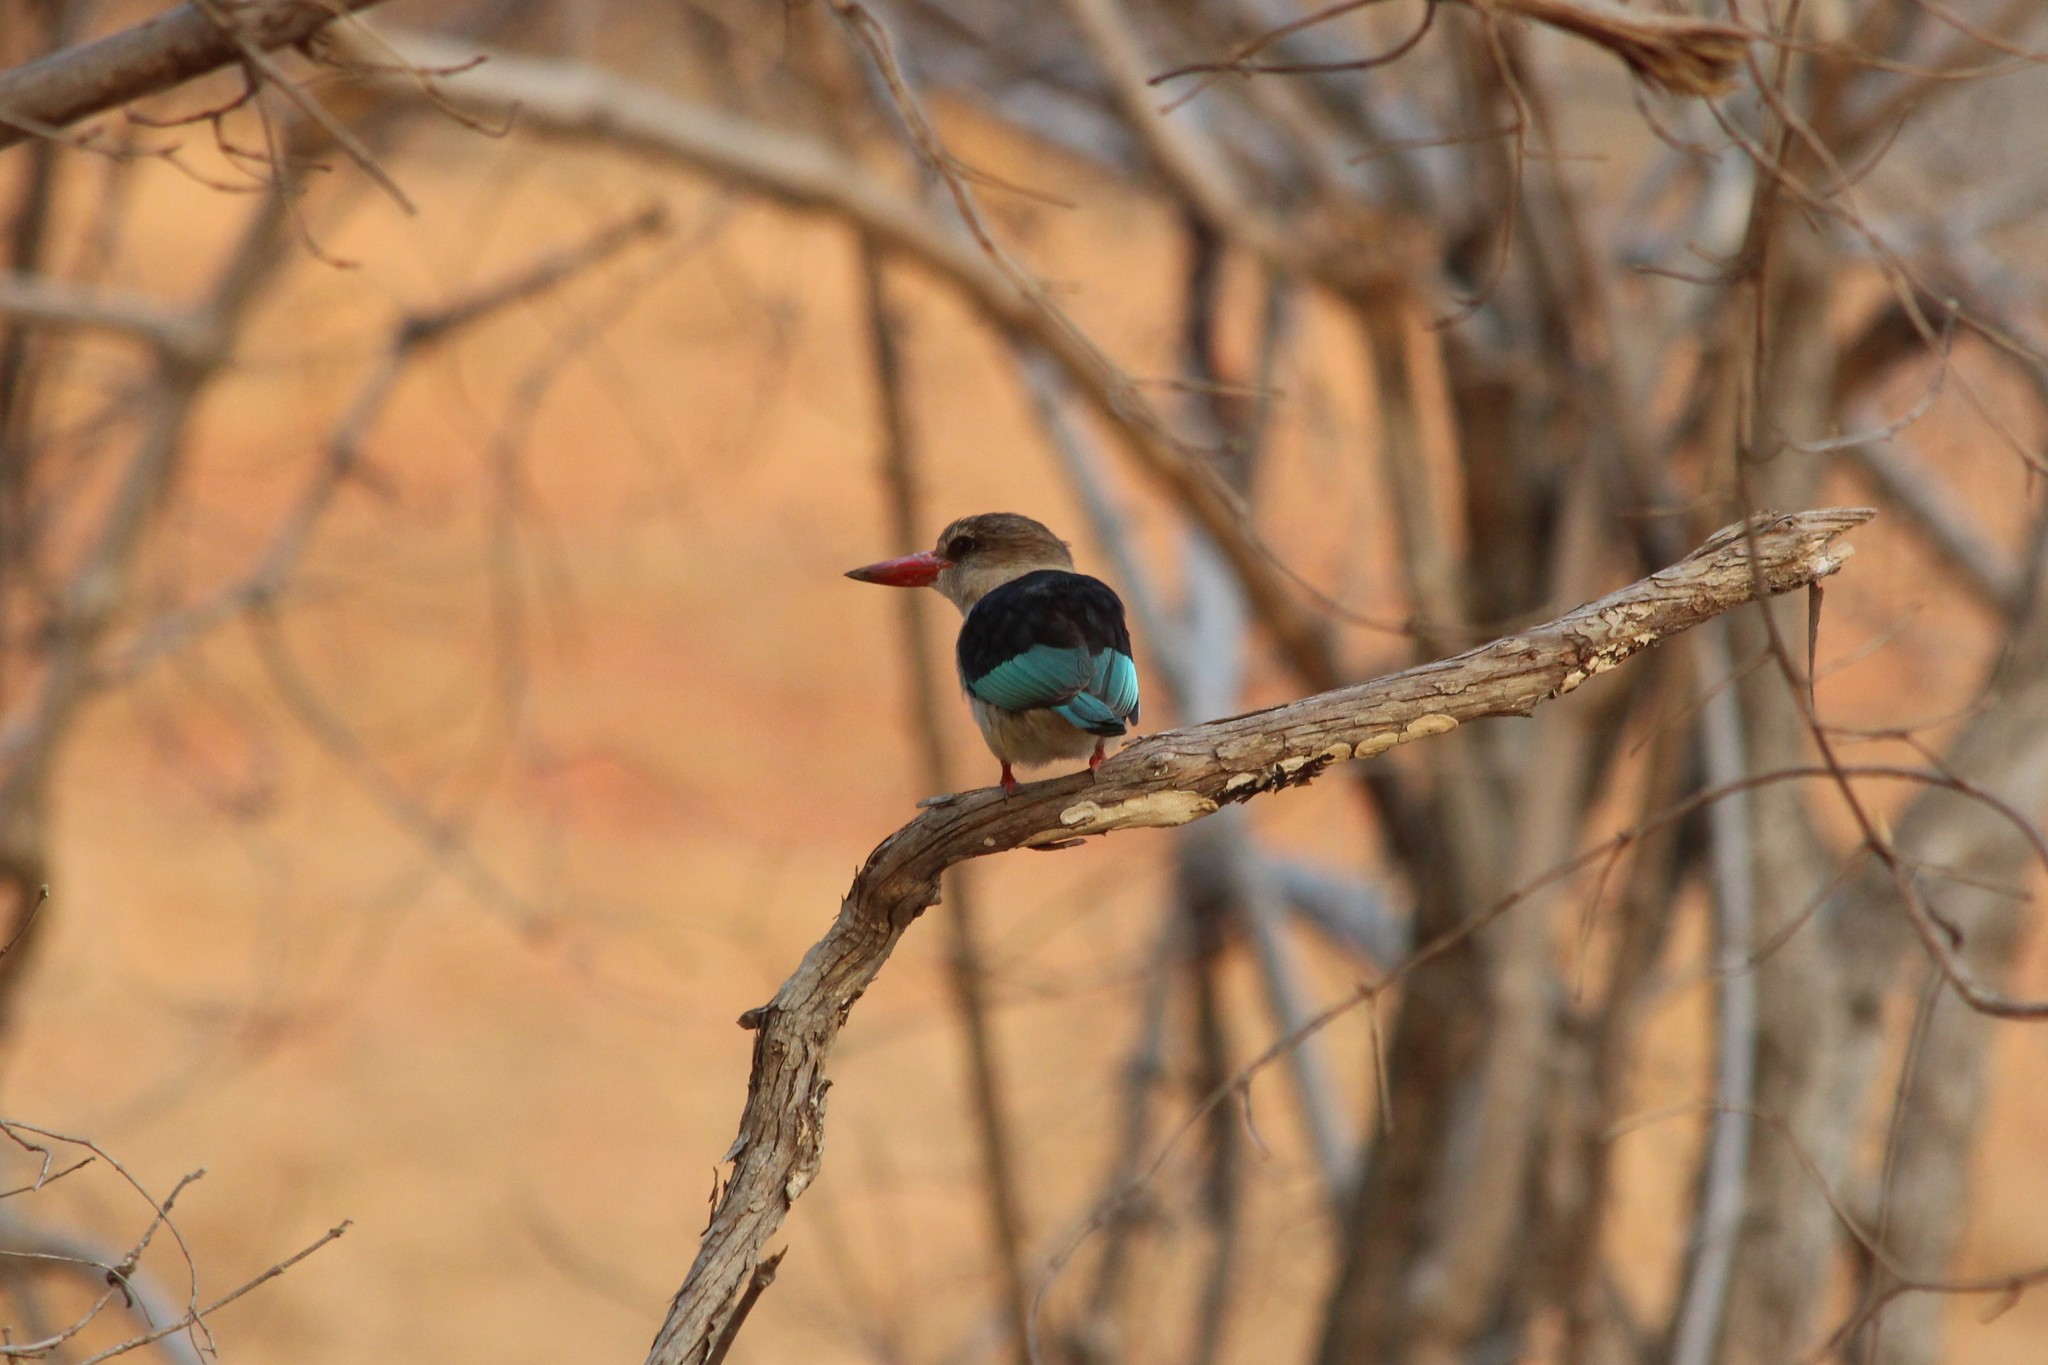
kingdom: Animalia
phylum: Chordata
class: Aves
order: Coraciiformes
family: Alcedinidae
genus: Halcyon
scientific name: Halcyon albiventris
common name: Brown-hooded kingfisher
